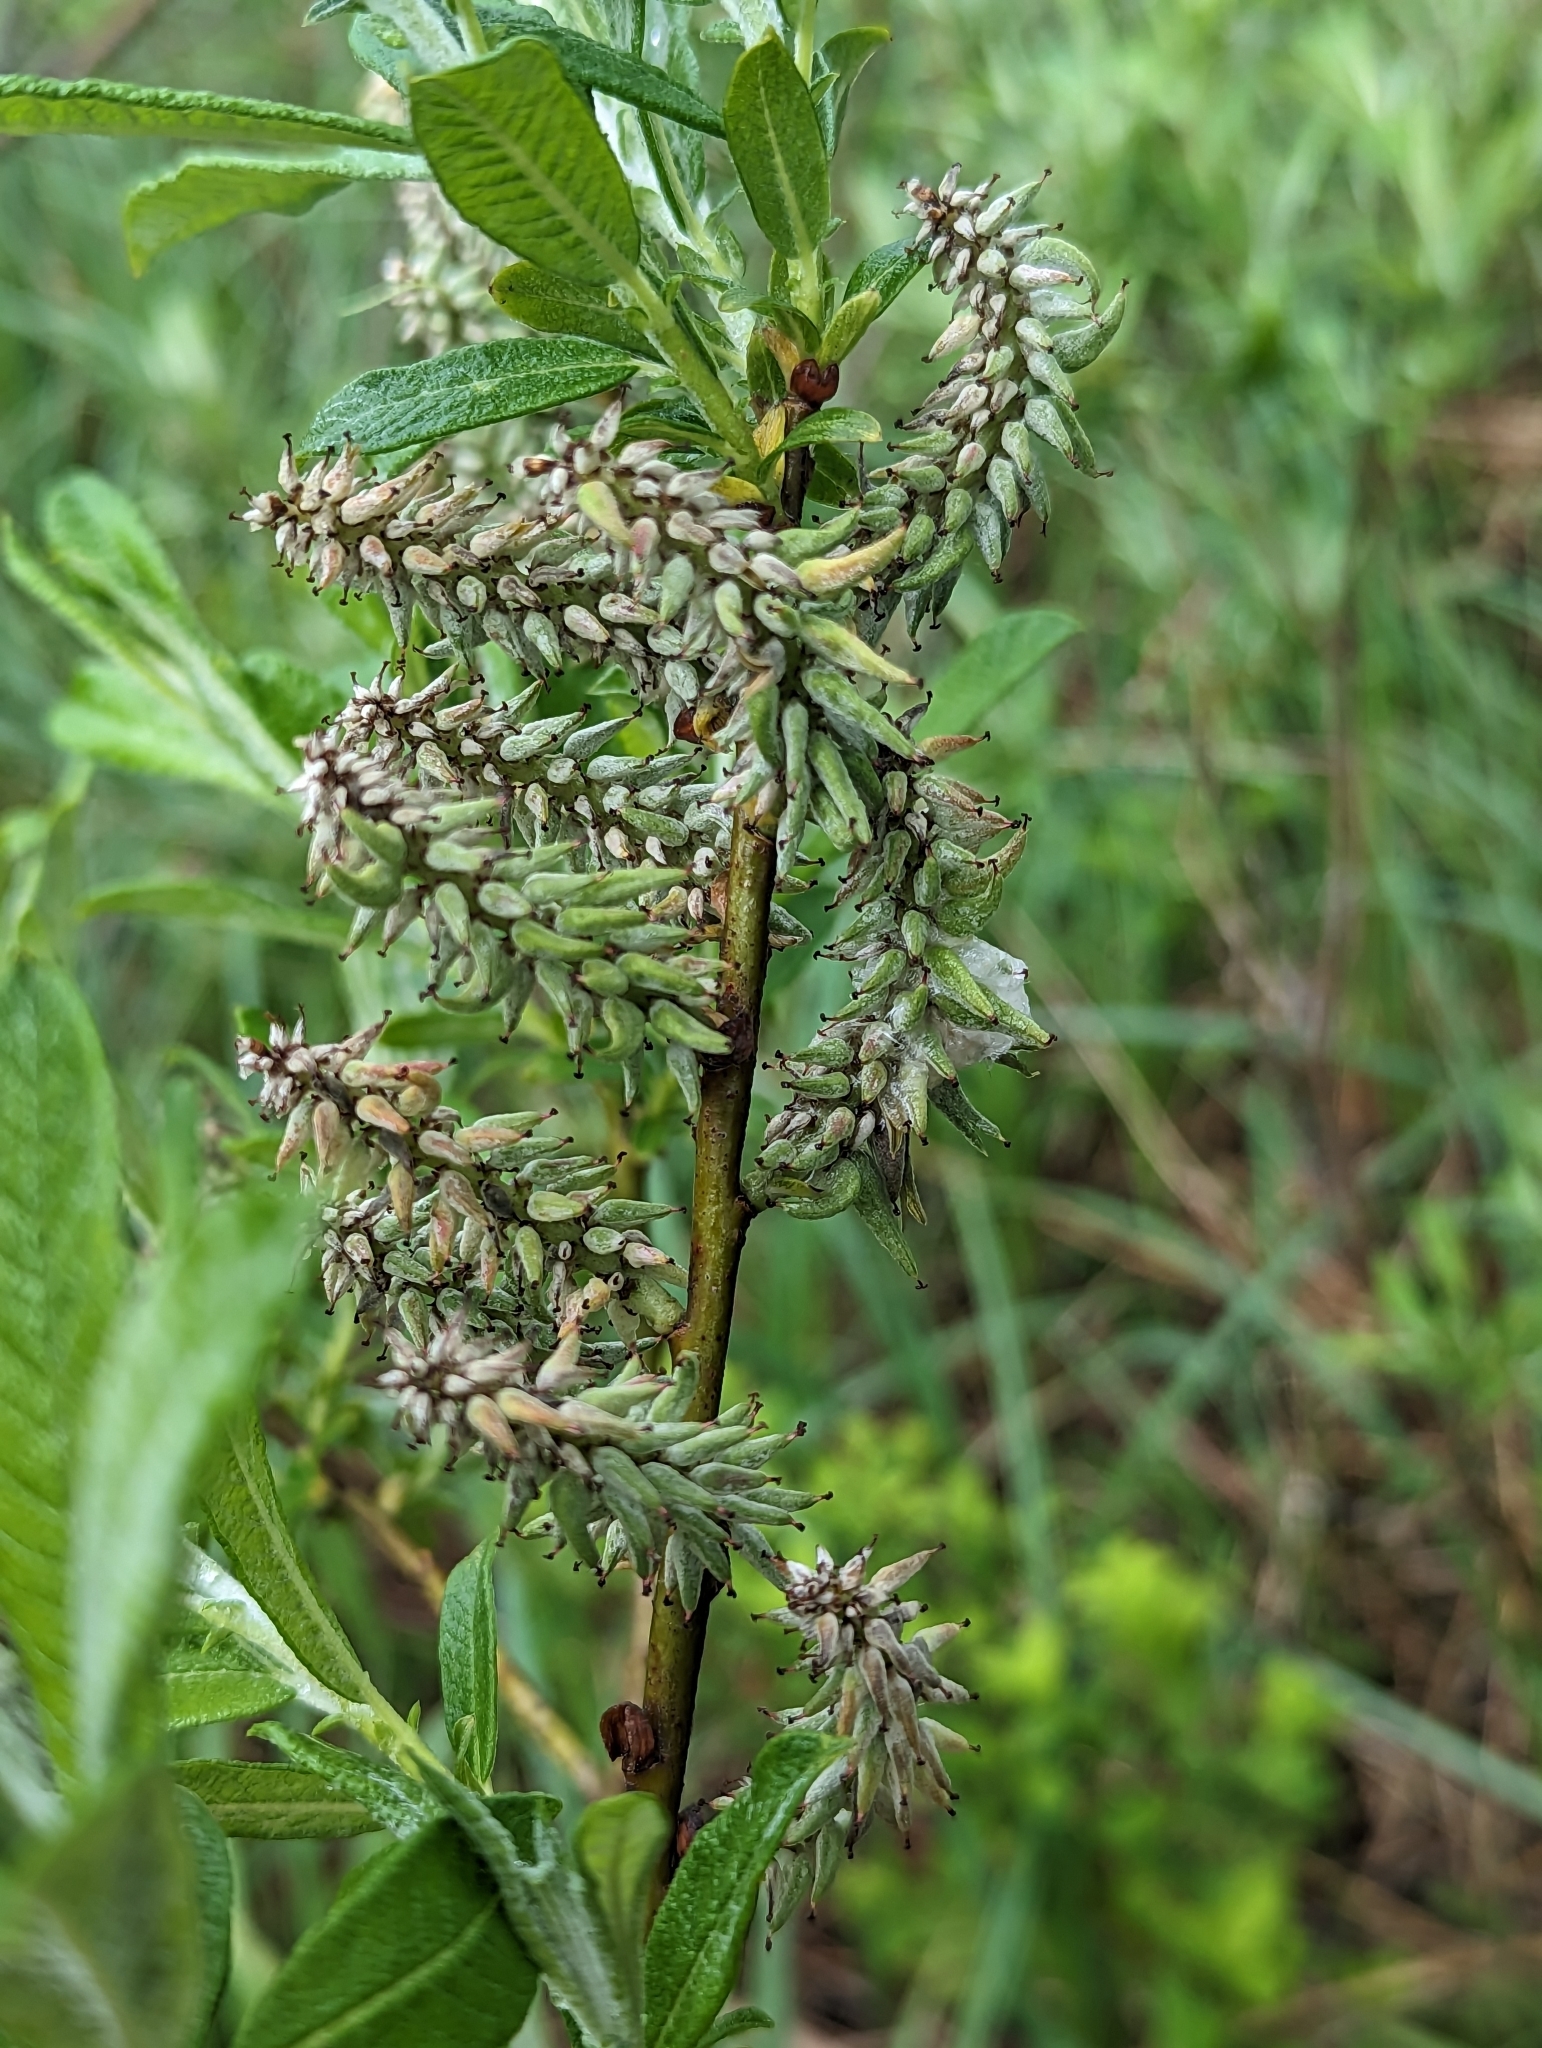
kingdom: Plantae
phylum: Tracheophyta
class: Magnoliopsida
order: Malpighiales
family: Salicaceae
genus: Salix
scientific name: Salix candida
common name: Hoary willow
